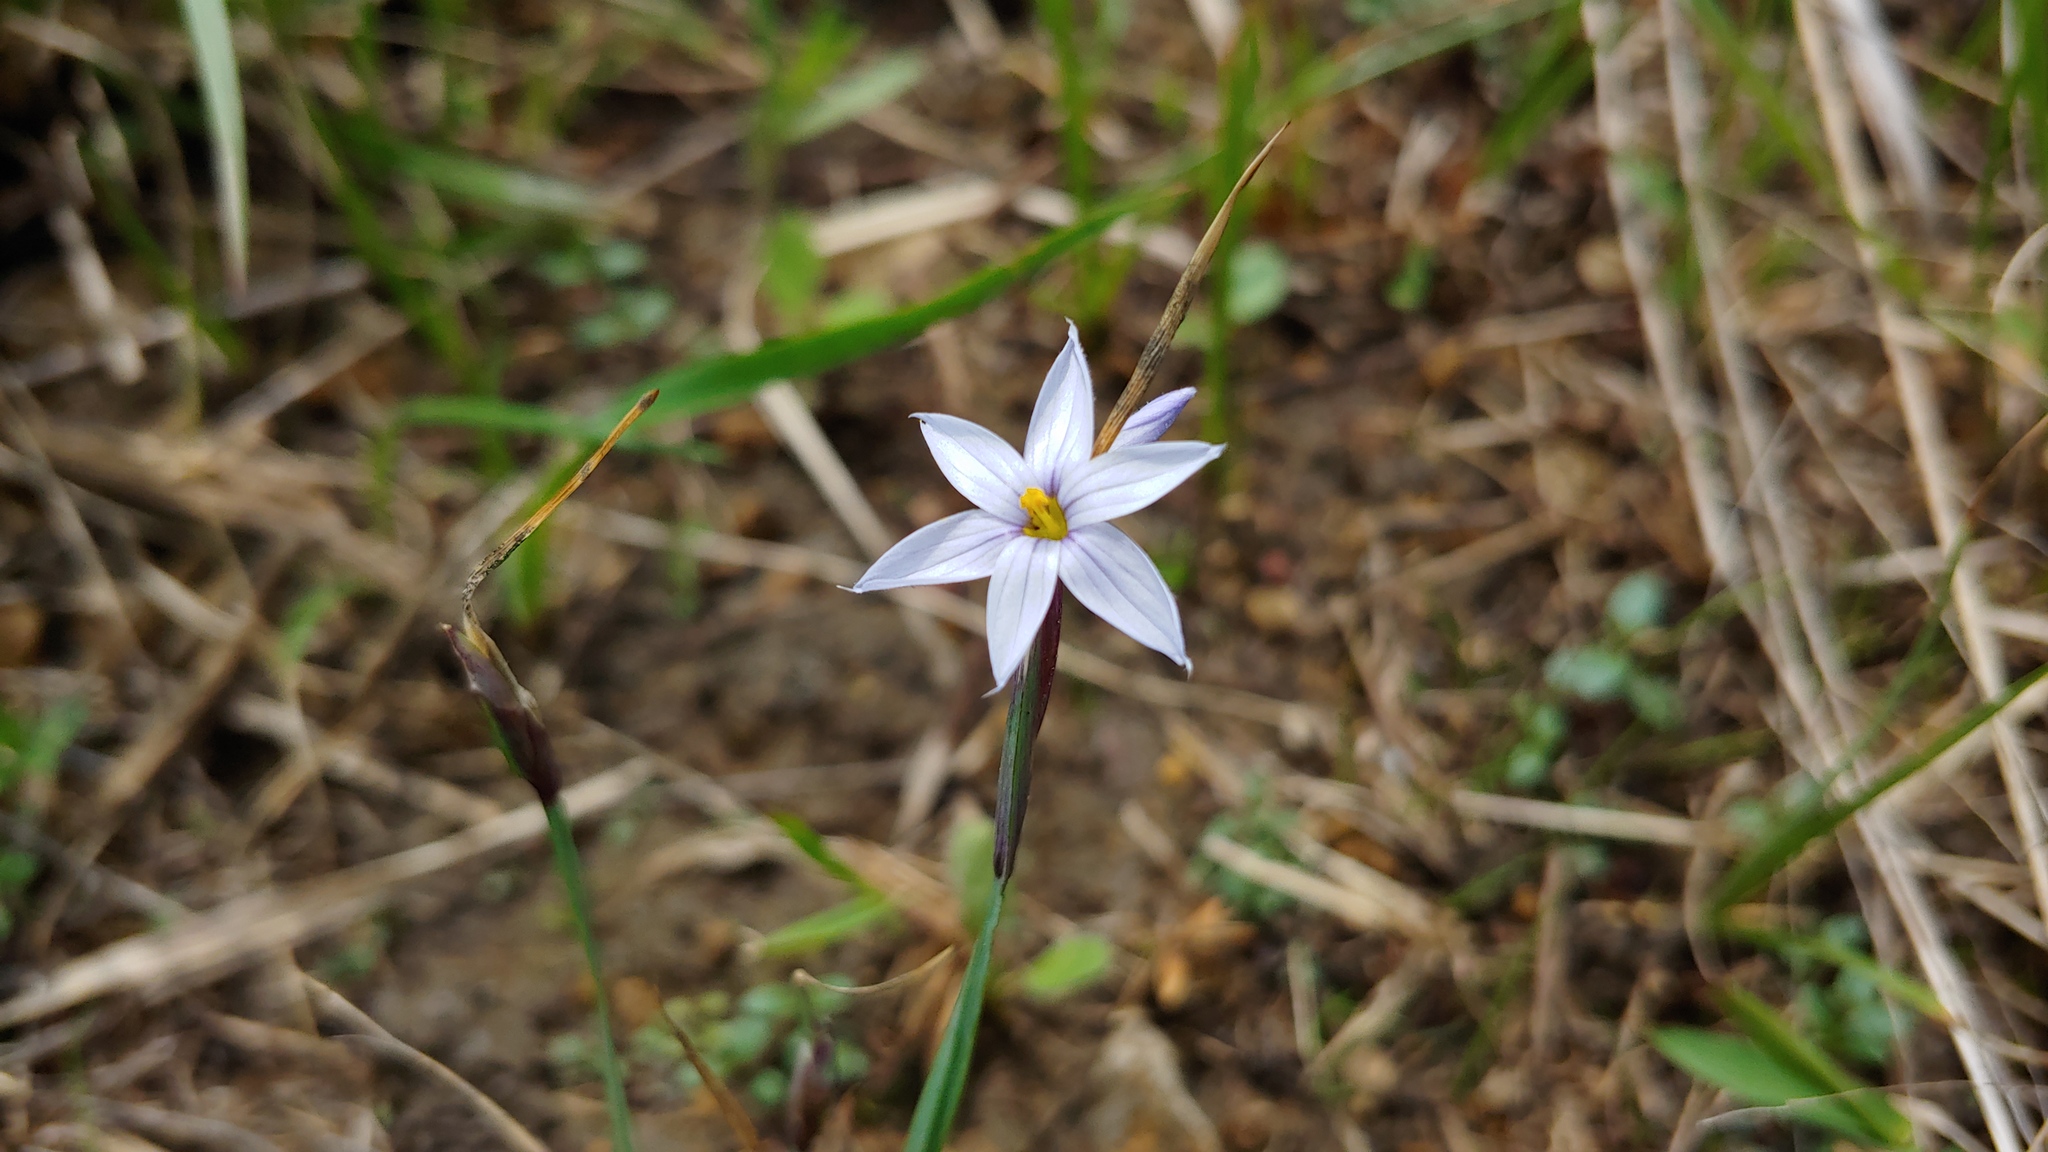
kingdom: Plantae
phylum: Tracheophyta
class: Liliopsida
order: Asparagales
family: Iridaceae
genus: Sisyrinchium
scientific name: Sisyrinchium campestre
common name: Prairie blue-eyed-grass
